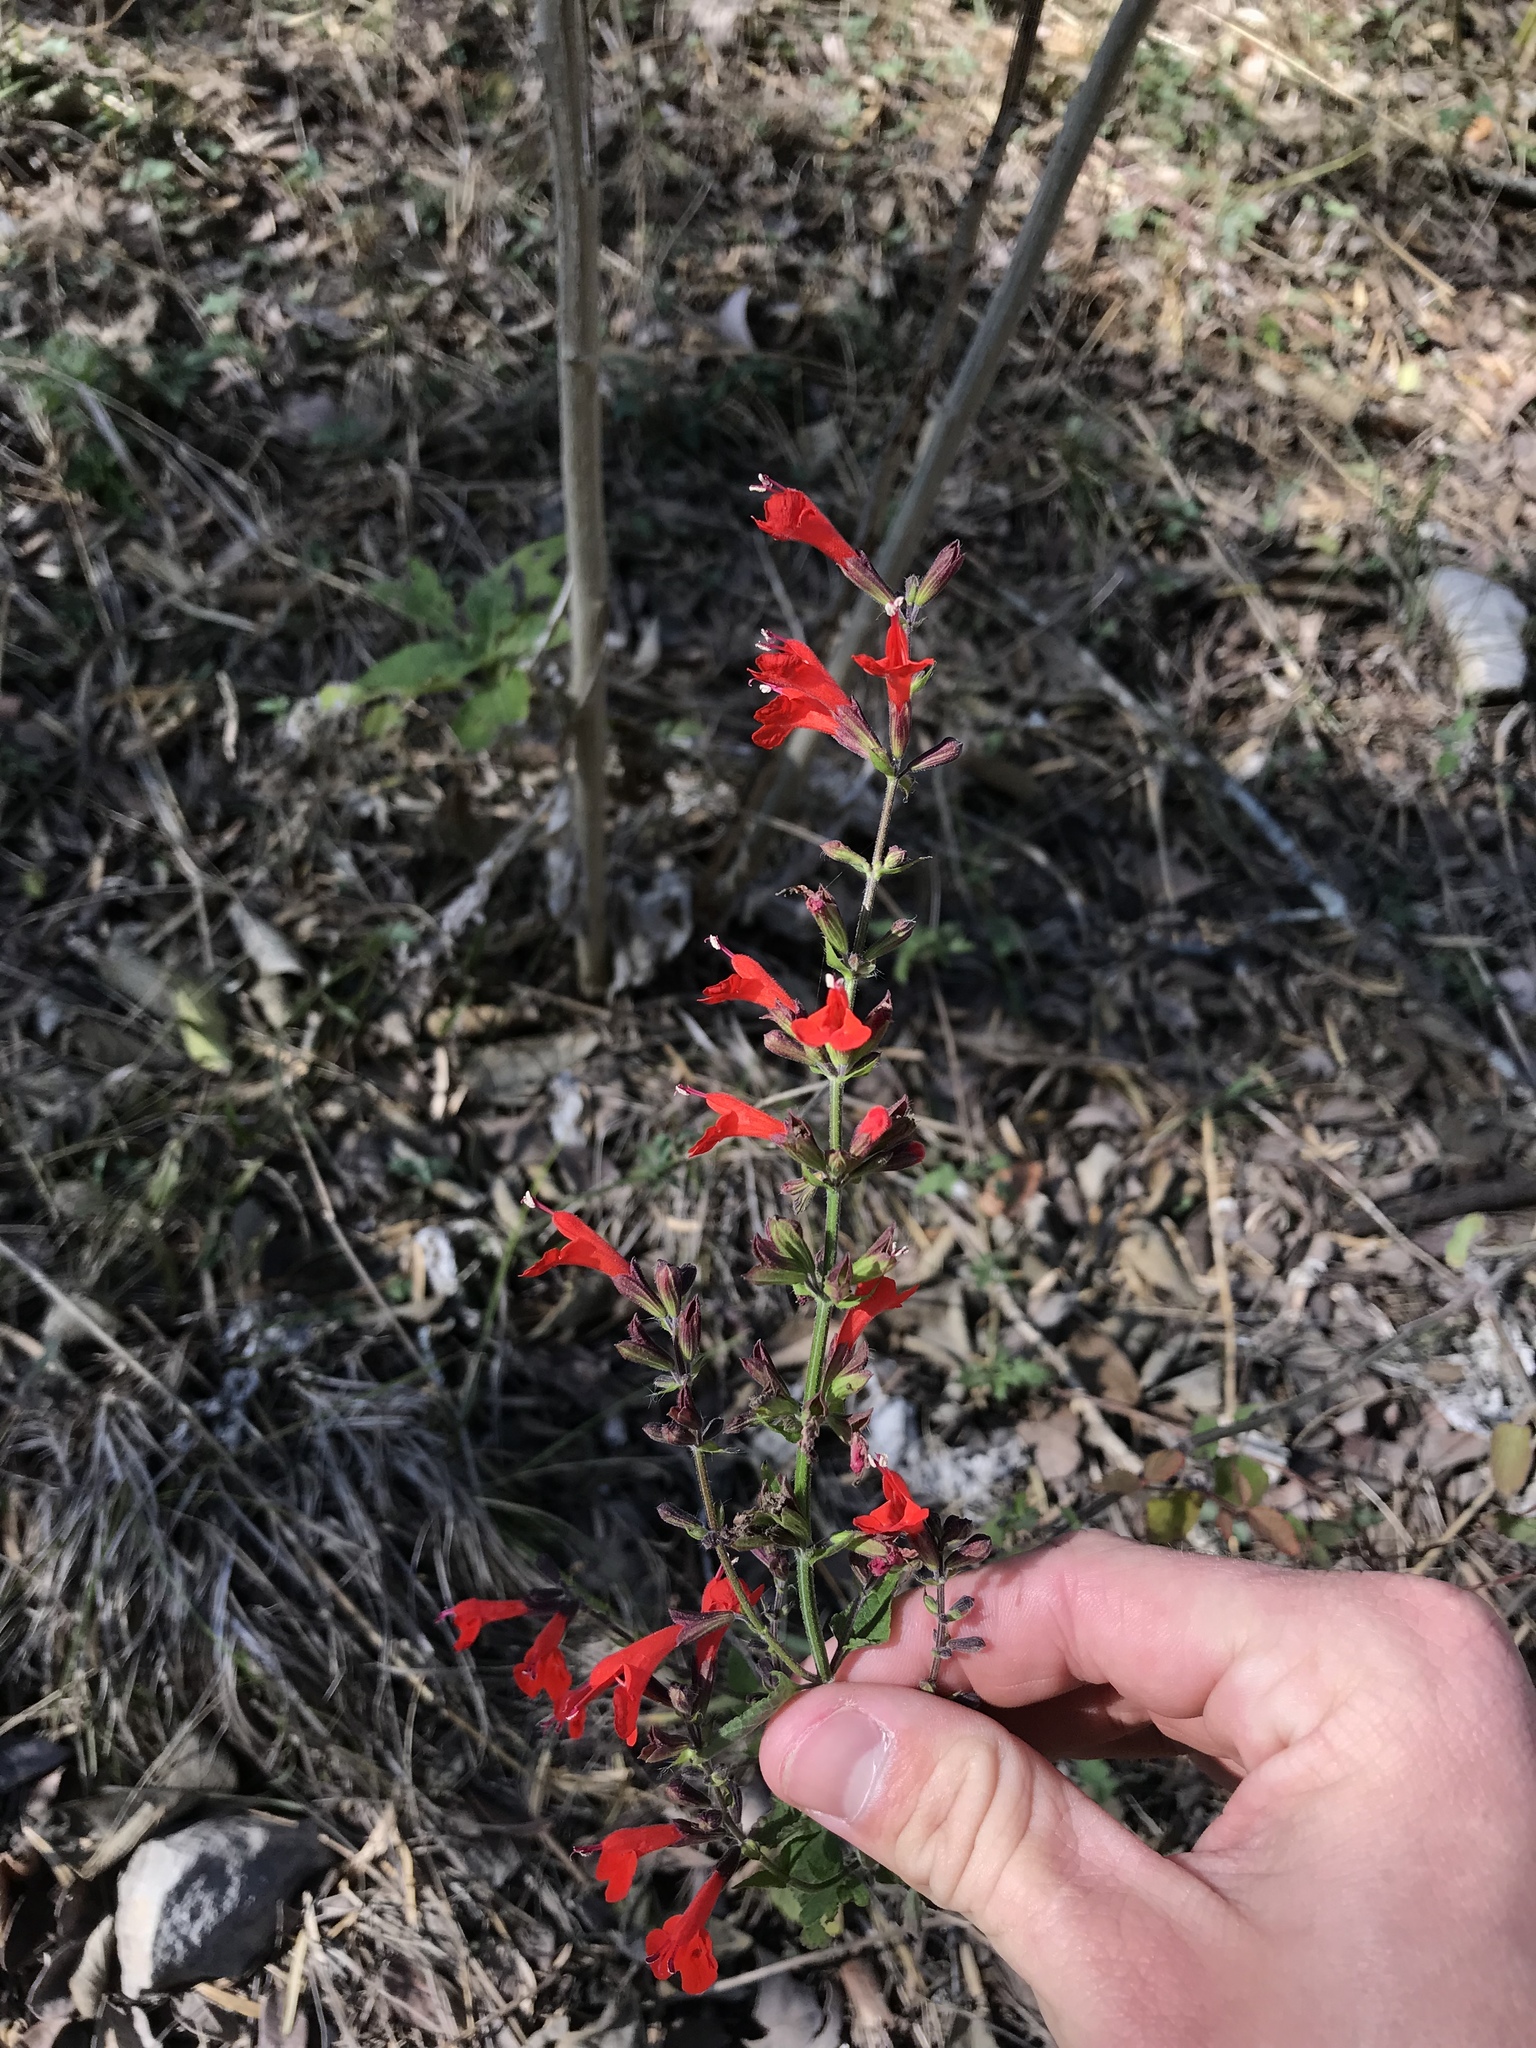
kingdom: Plantae
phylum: Tracheophyta
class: Magnoliopsida
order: Lamiales
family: Lamiaceae
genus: Salvia
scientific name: Salvia coccinea
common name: Blood sage
